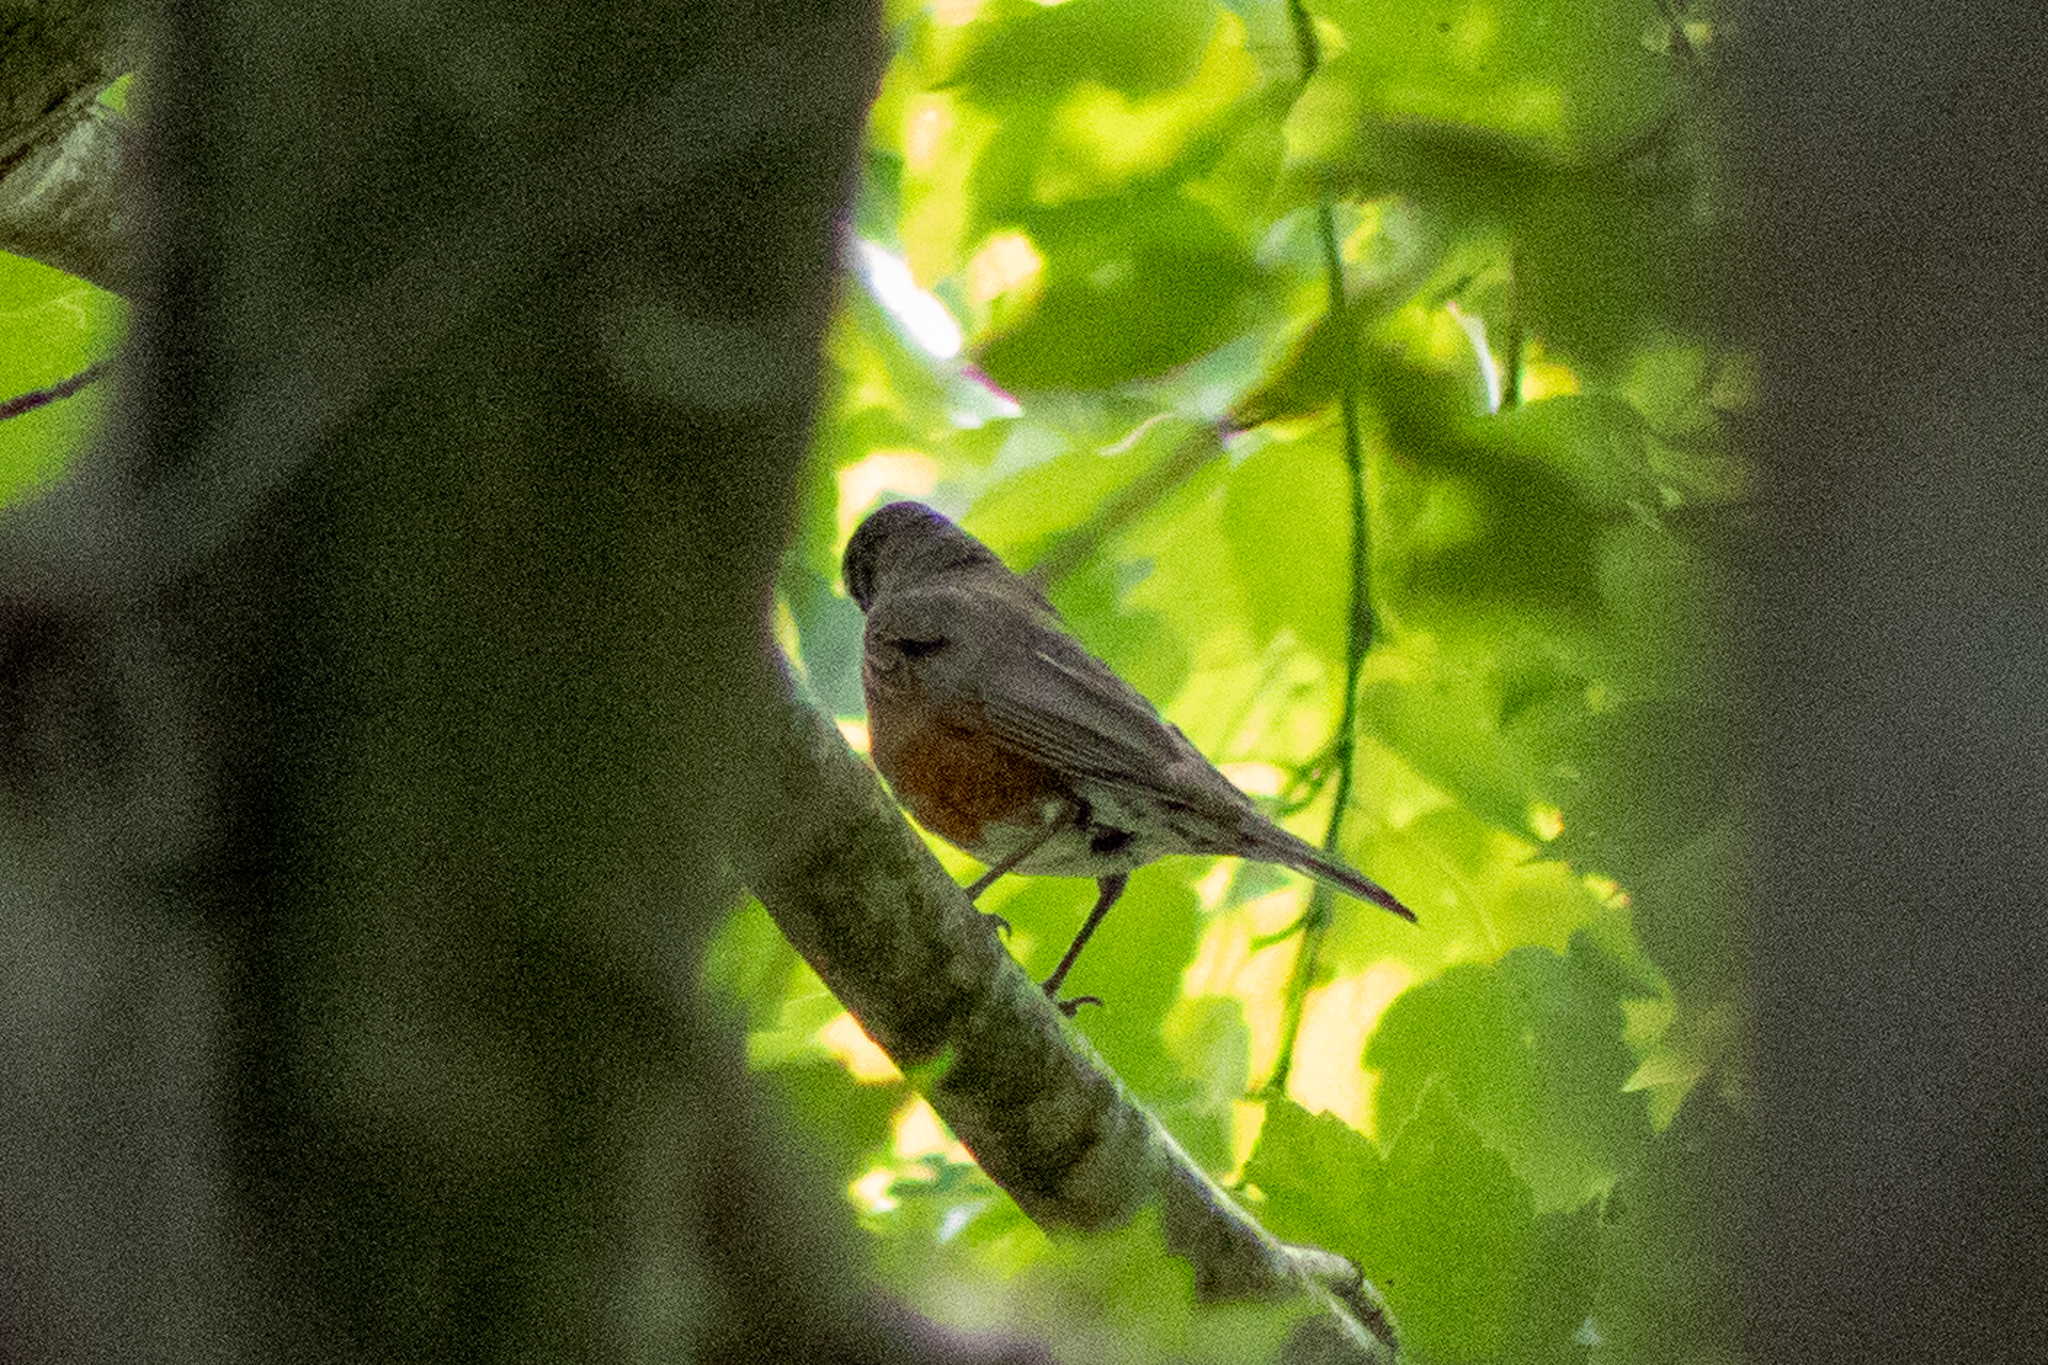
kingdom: Animalia
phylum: Chordata
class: Aves
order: Passeriformes
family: Turdidae
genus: Turdus
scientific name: Turdus migratorius
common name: American robin
